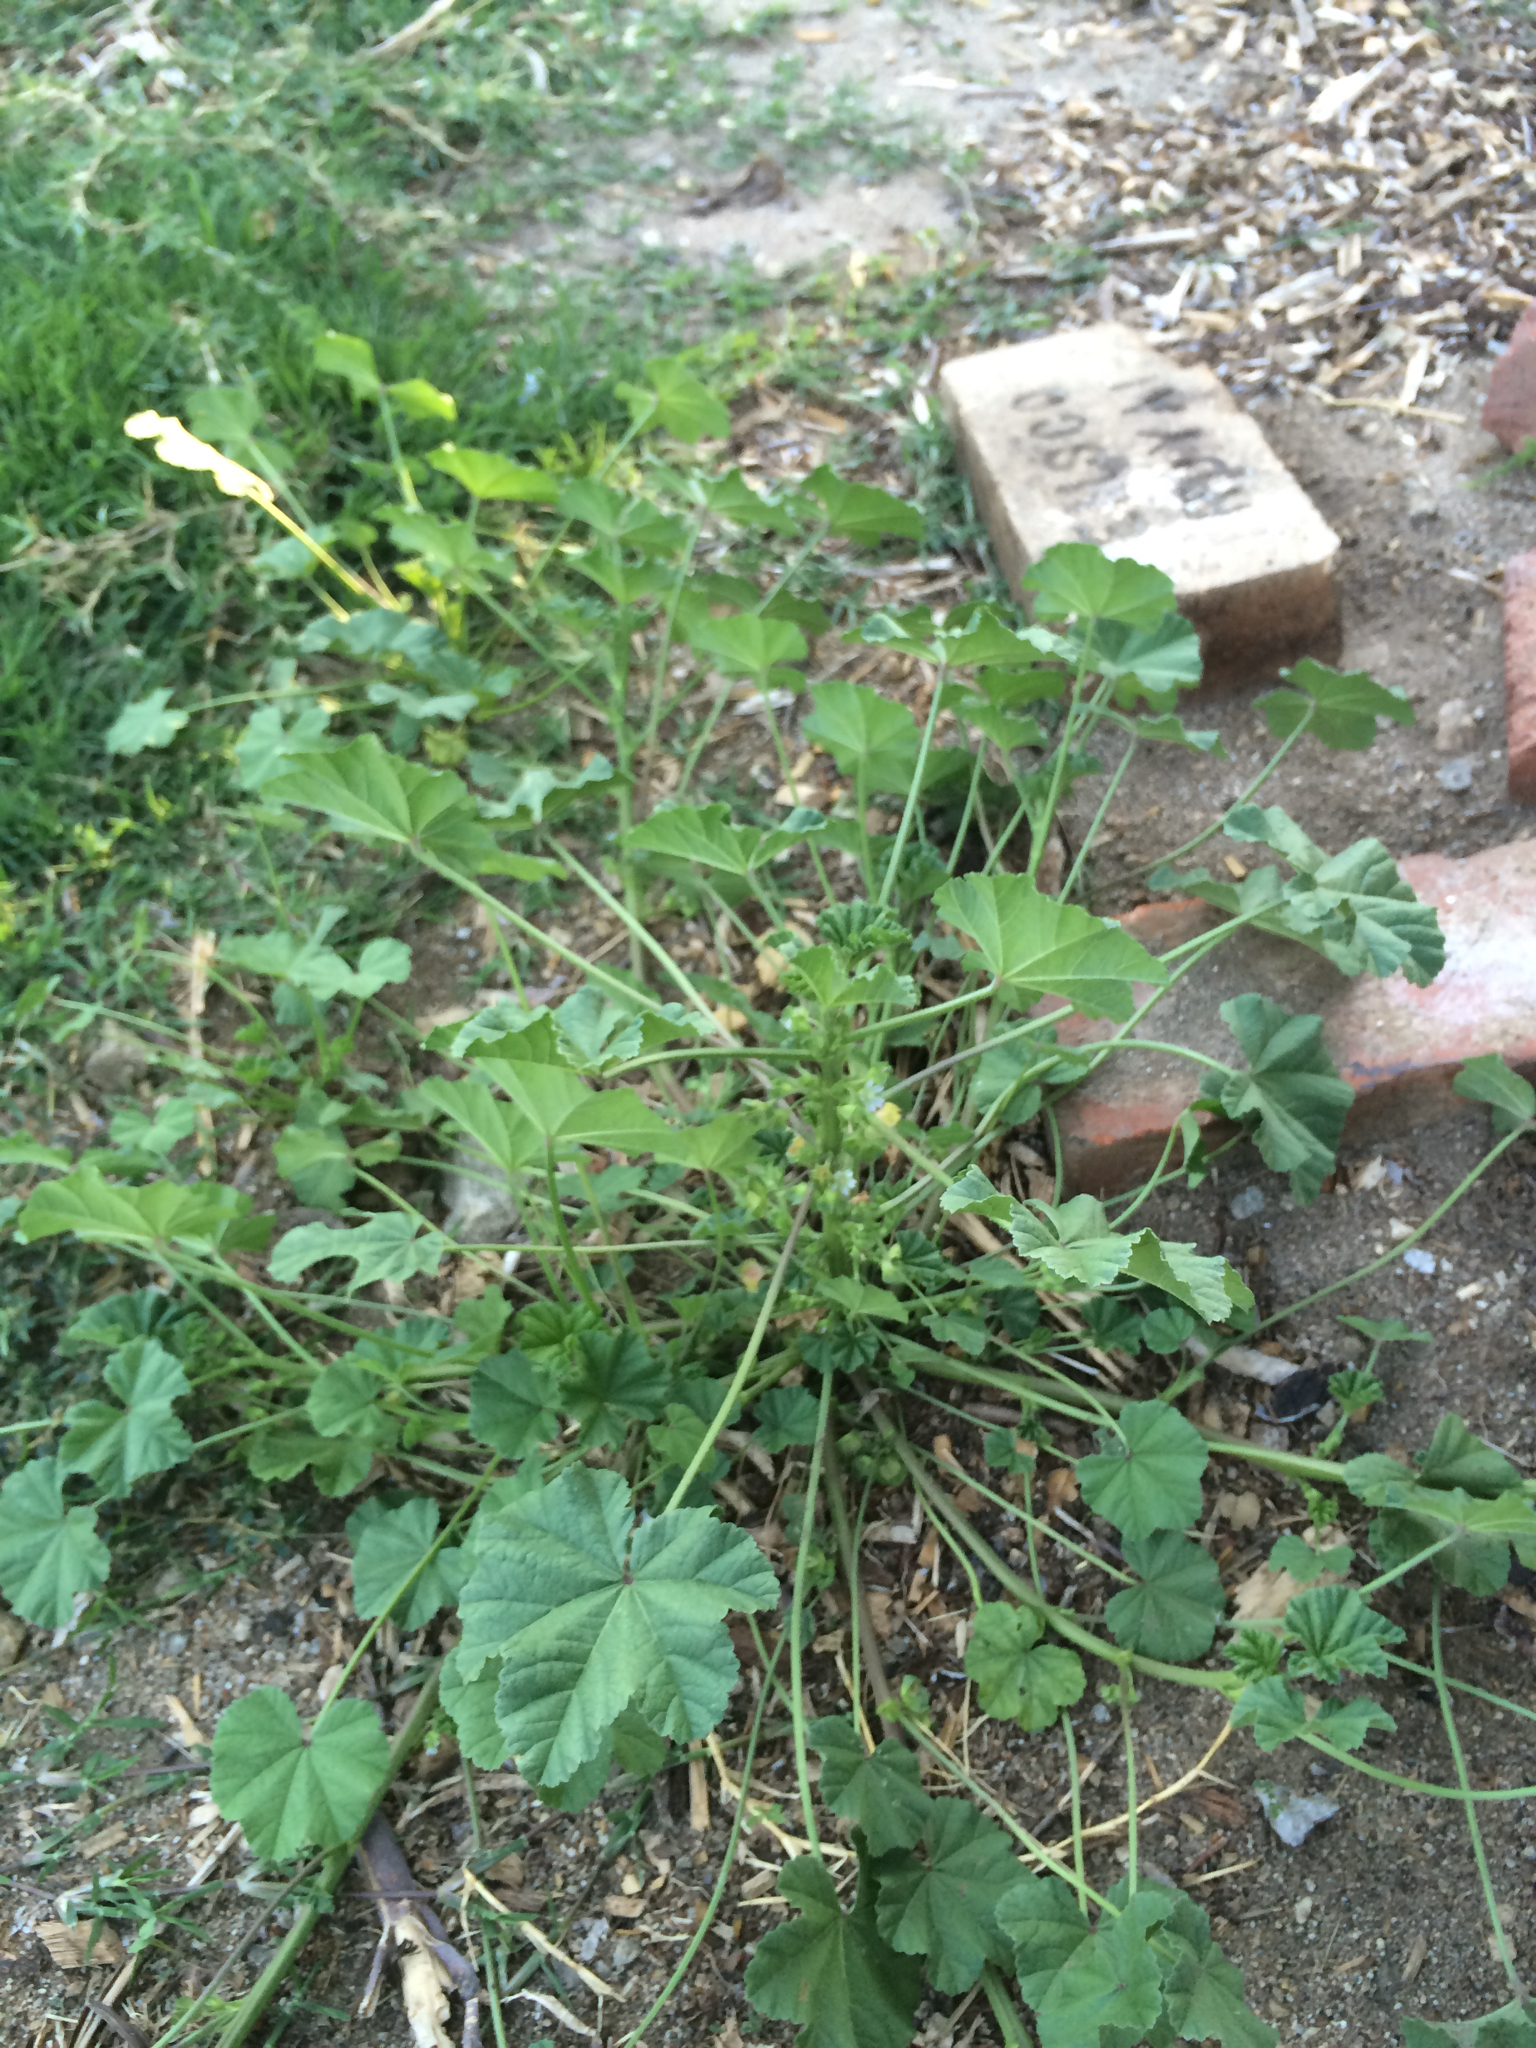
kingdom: Plantae
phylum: Tracheophyta
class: Magnoliopsida
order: Malvales
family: Malvaceae
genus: Malva
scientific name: Malva parviflora
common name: Least mallow
